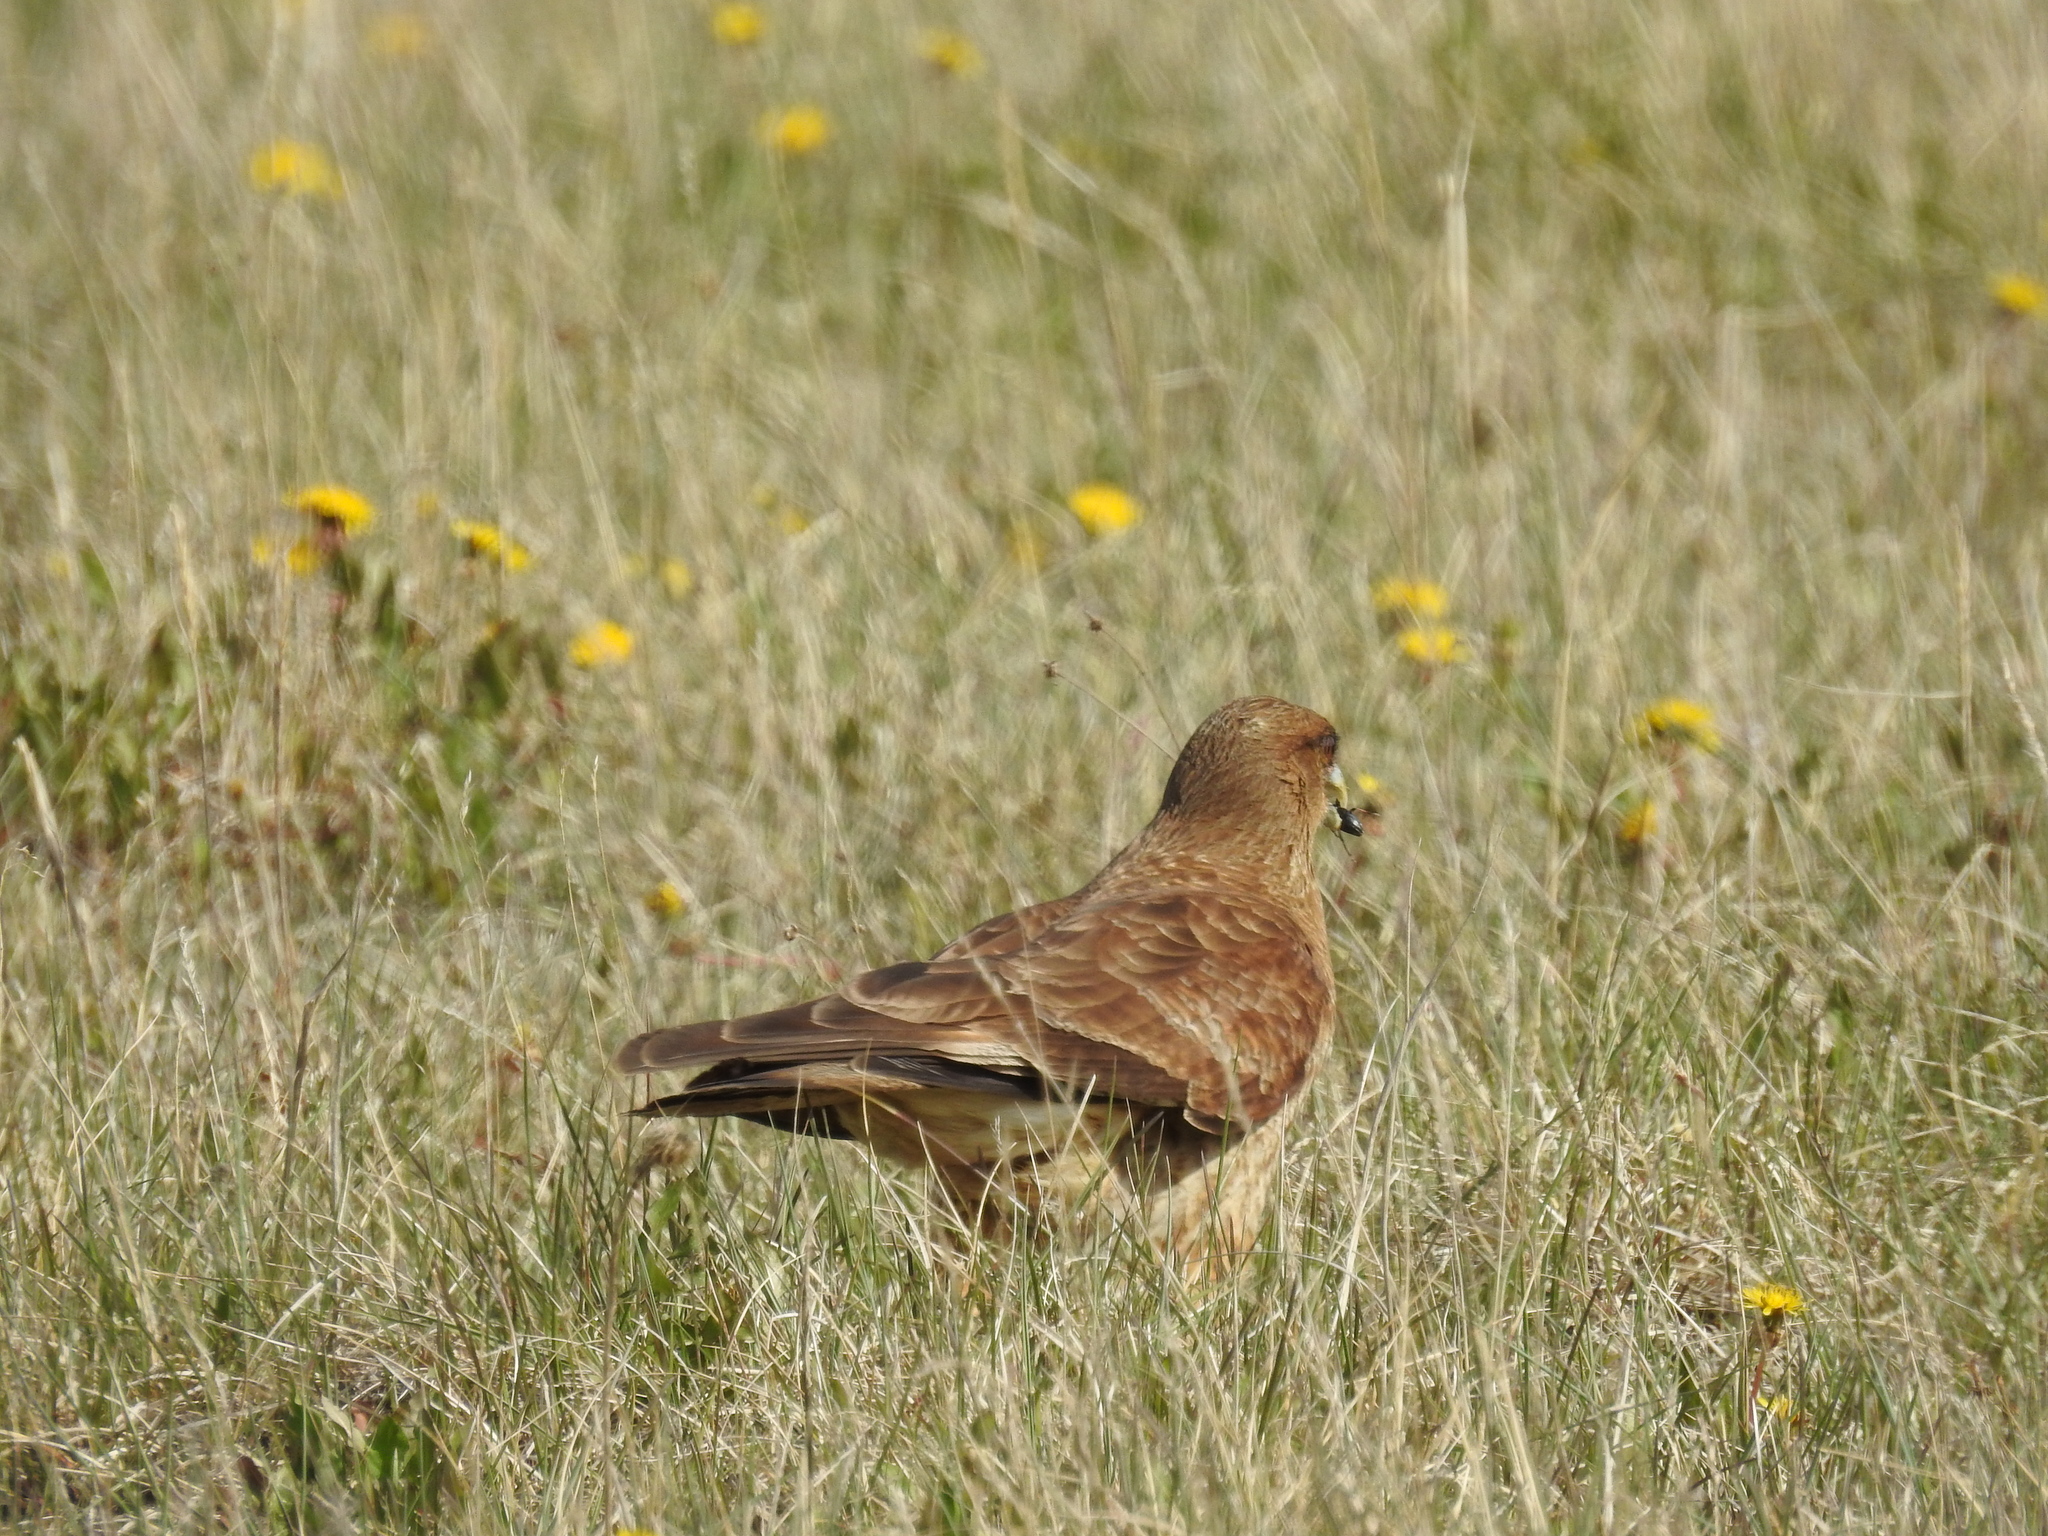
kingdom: Animalia
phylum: Chordata
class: Aves
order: Falconiformes
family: Falconidae
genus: Daptrius
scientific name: Daptrius
